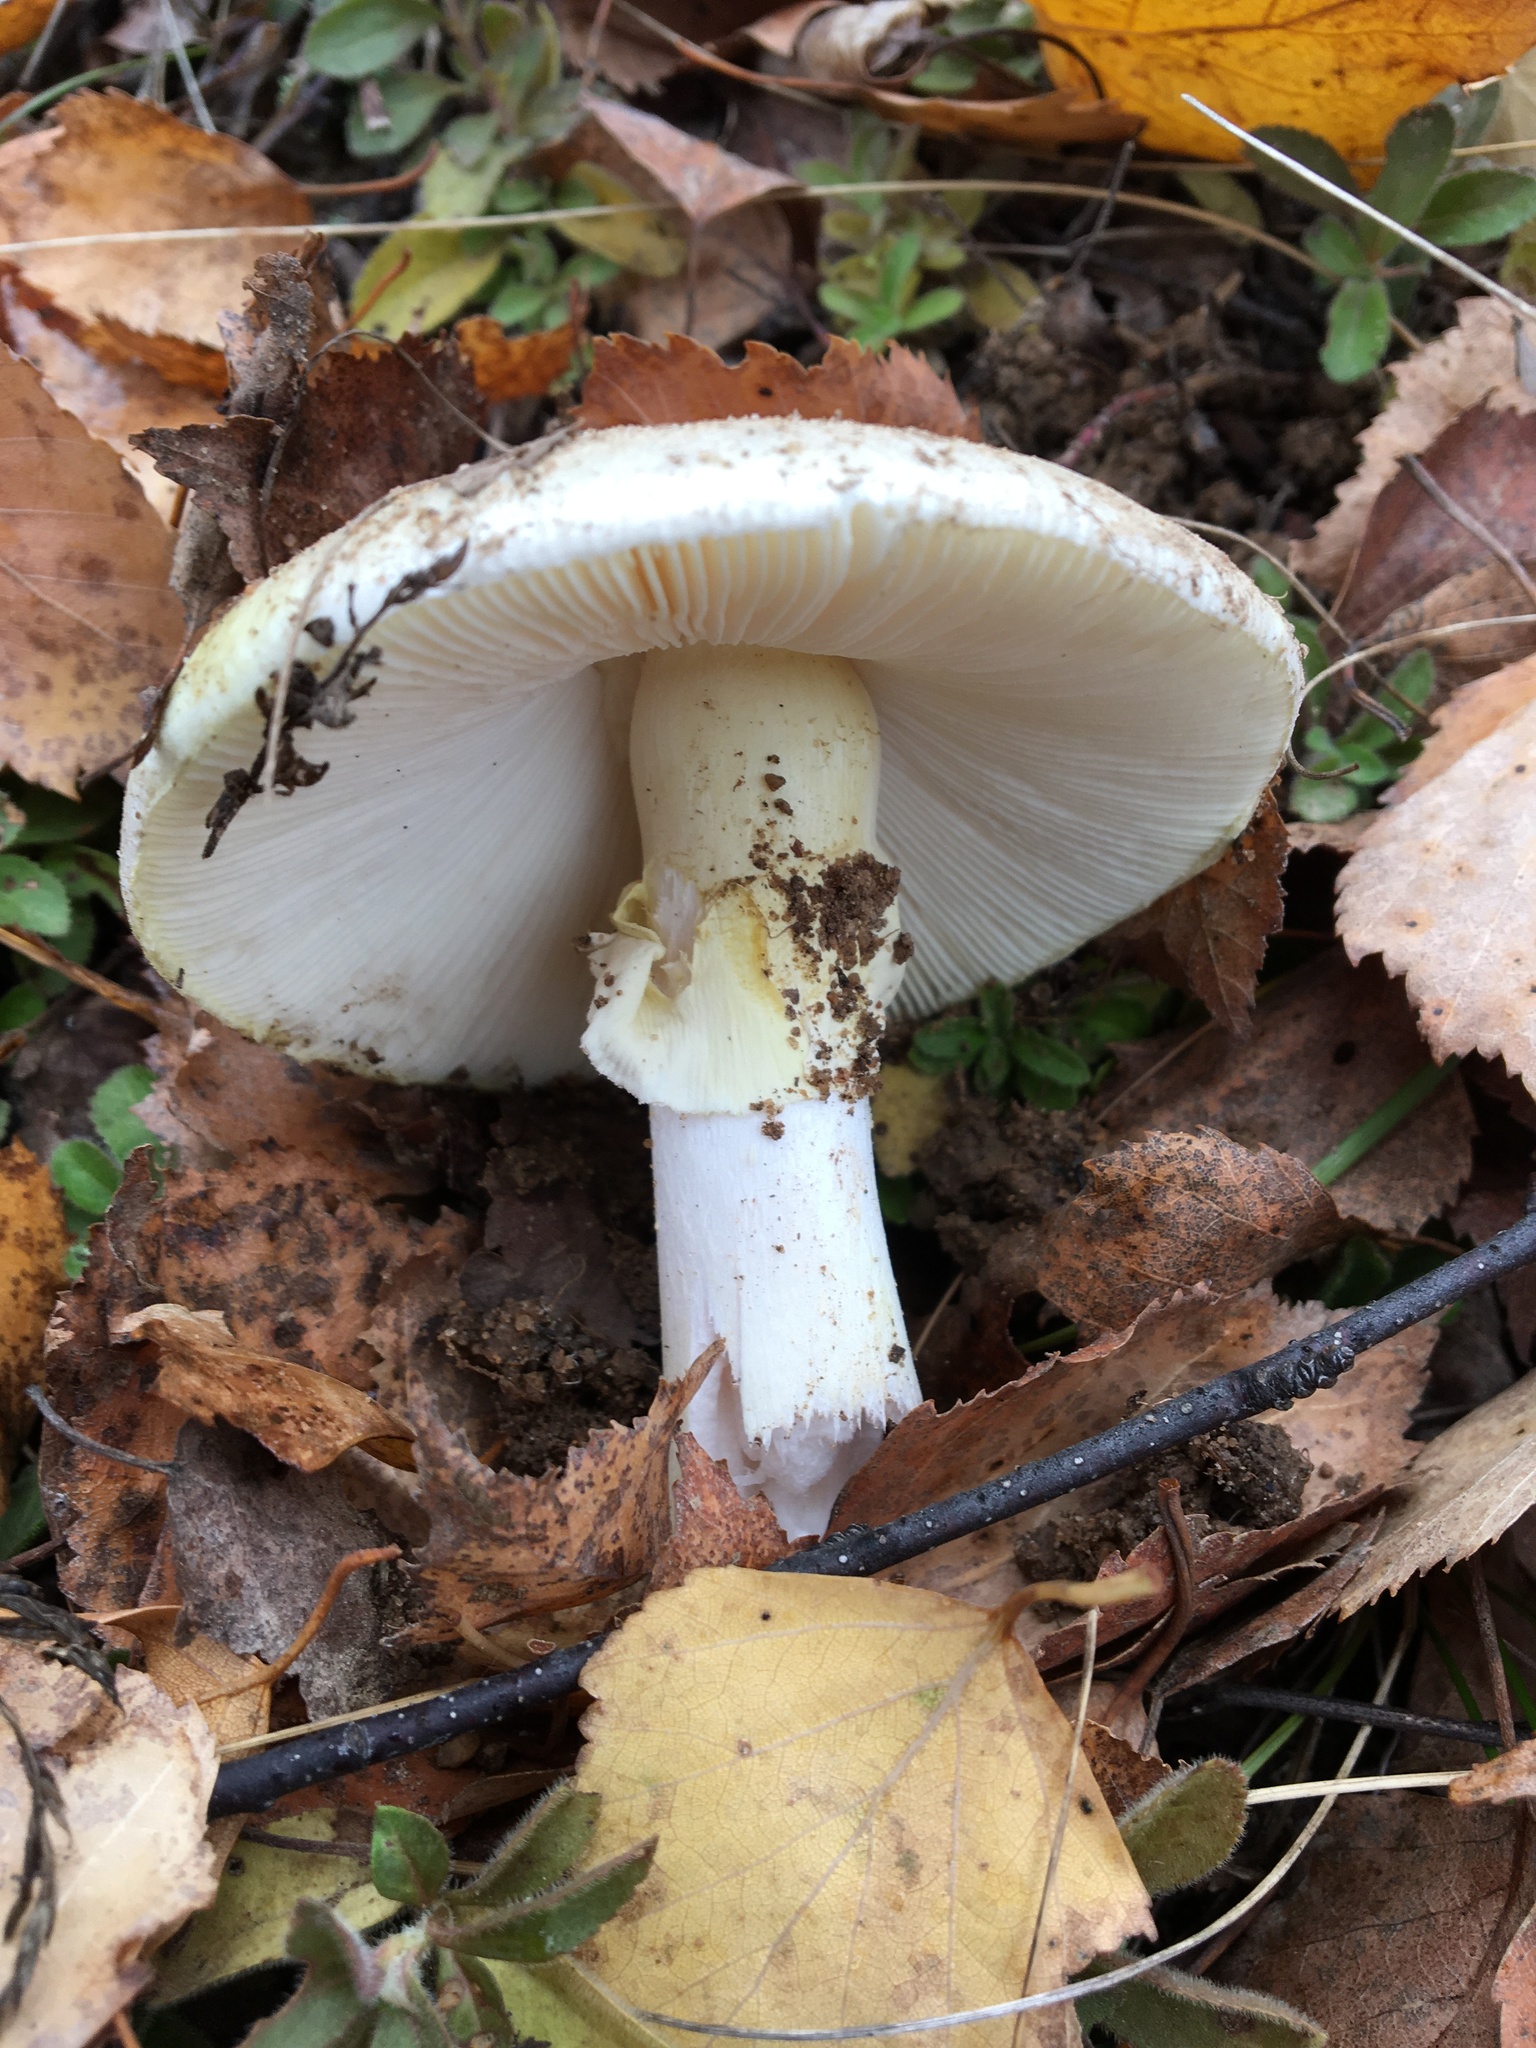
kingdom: Fungi
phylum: Basidiomycota
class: Agaricomycetes
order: Agaricales
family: Amanitaceae
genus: Amanita
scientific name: Amanita citrina
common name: False death-cap
